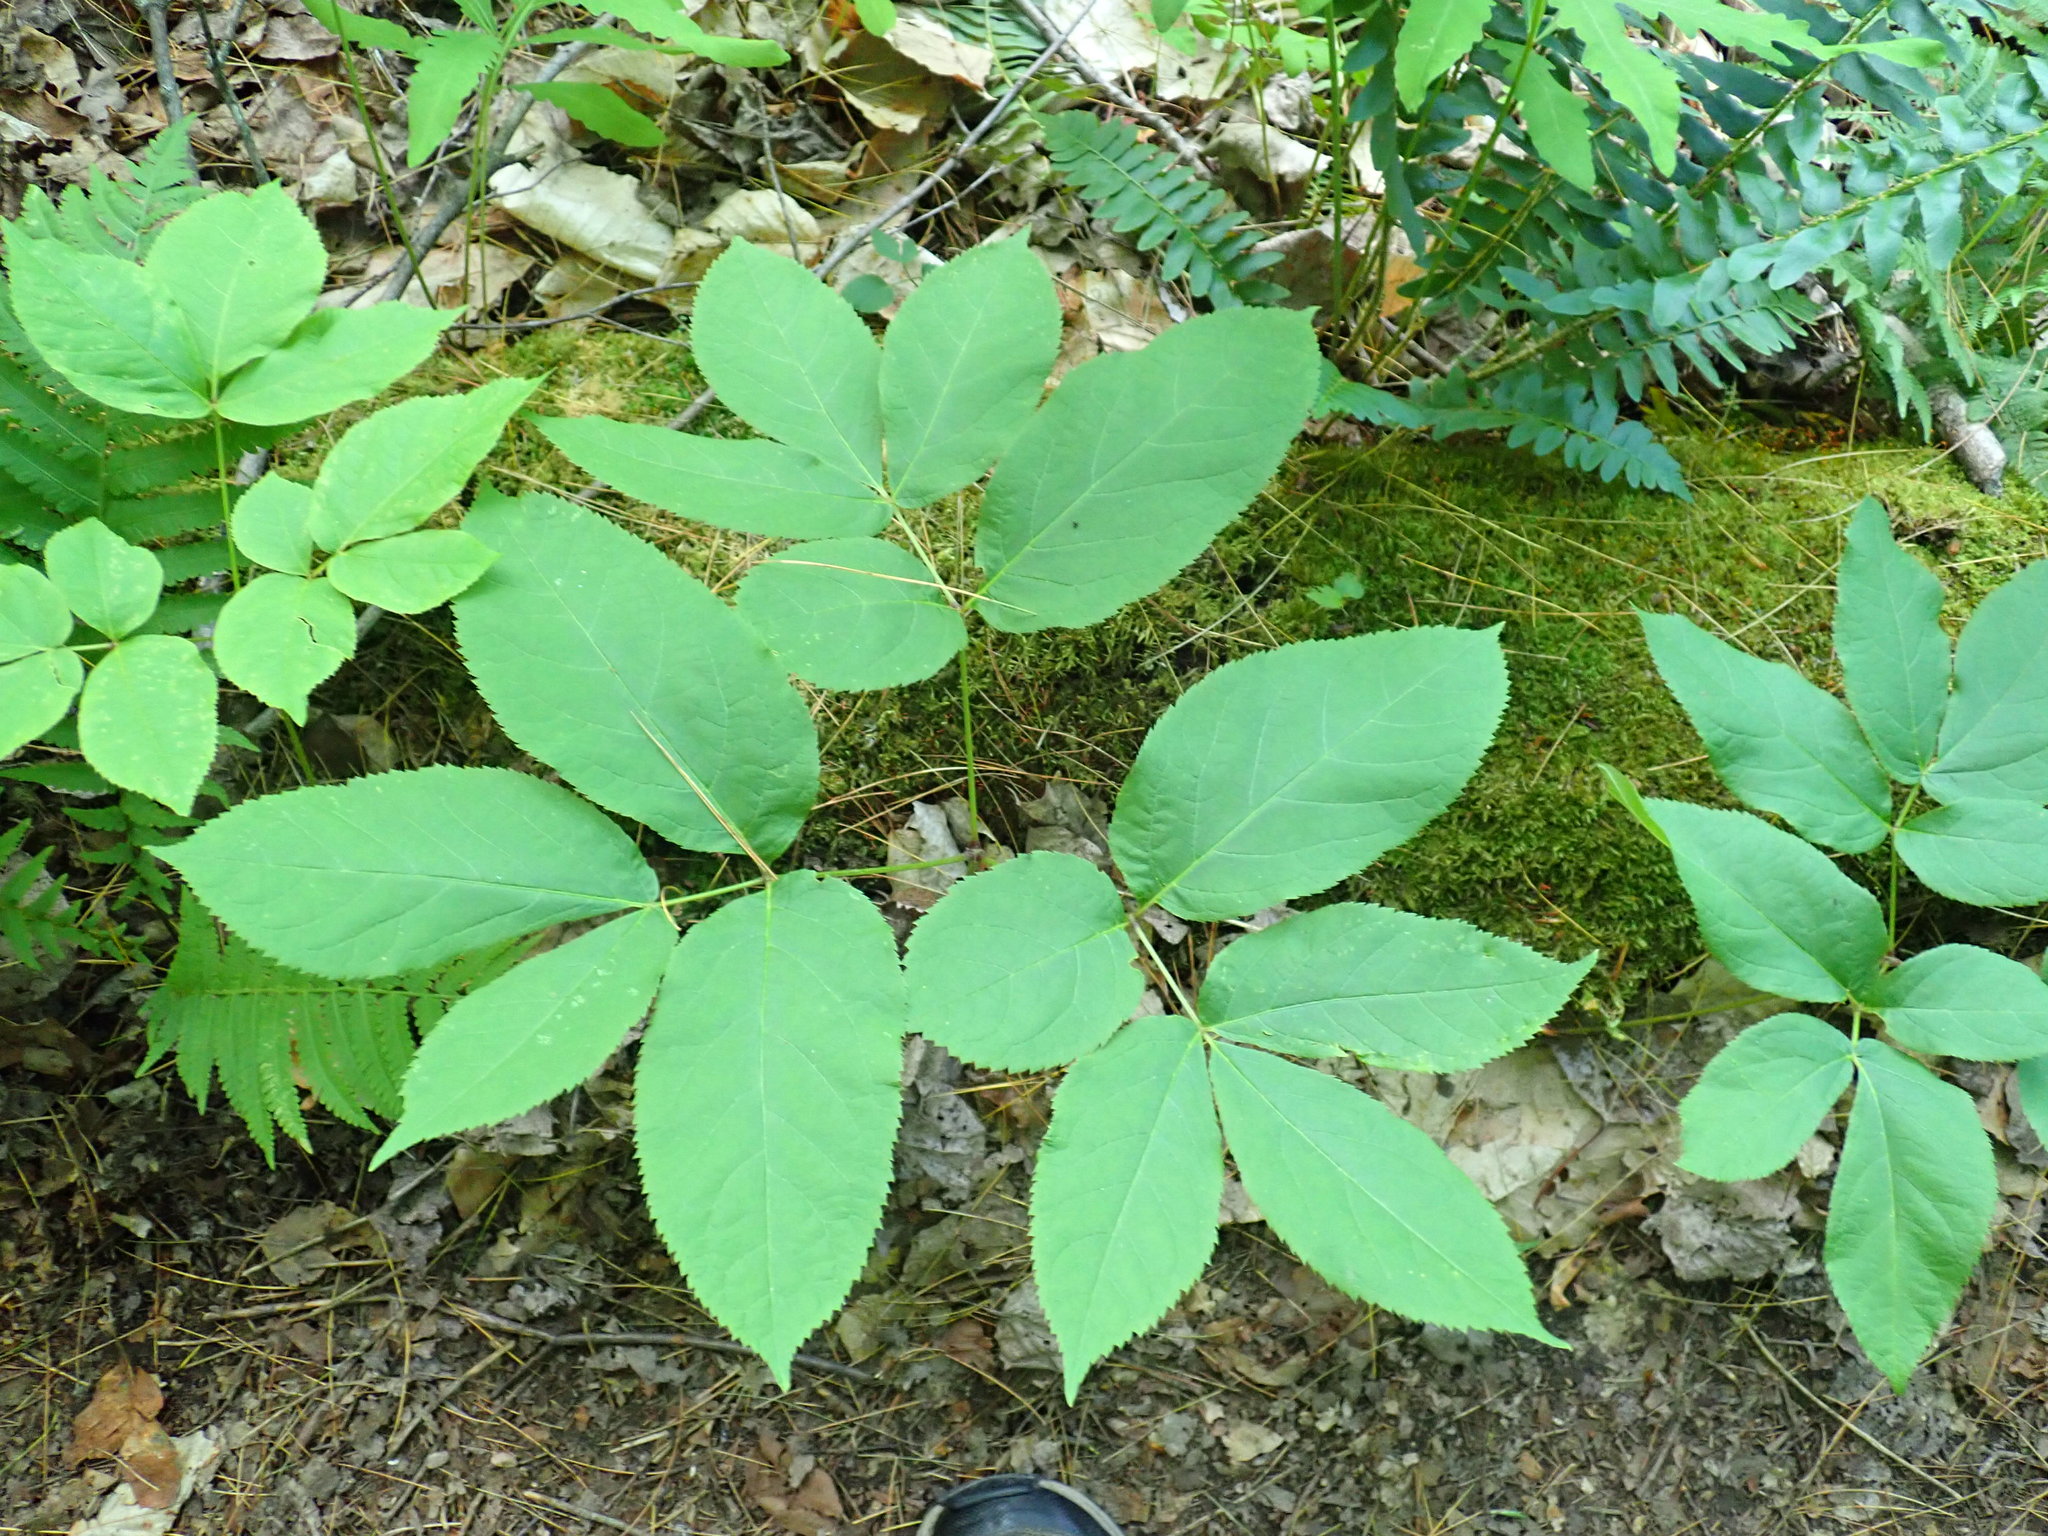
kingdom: Plantae
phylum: Tracheophyta
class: Magnoliopsida
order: Apiales
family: Araliaceae
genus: Aralia
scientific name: Aralia nudicaulis
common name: Wild sarsaparilla
